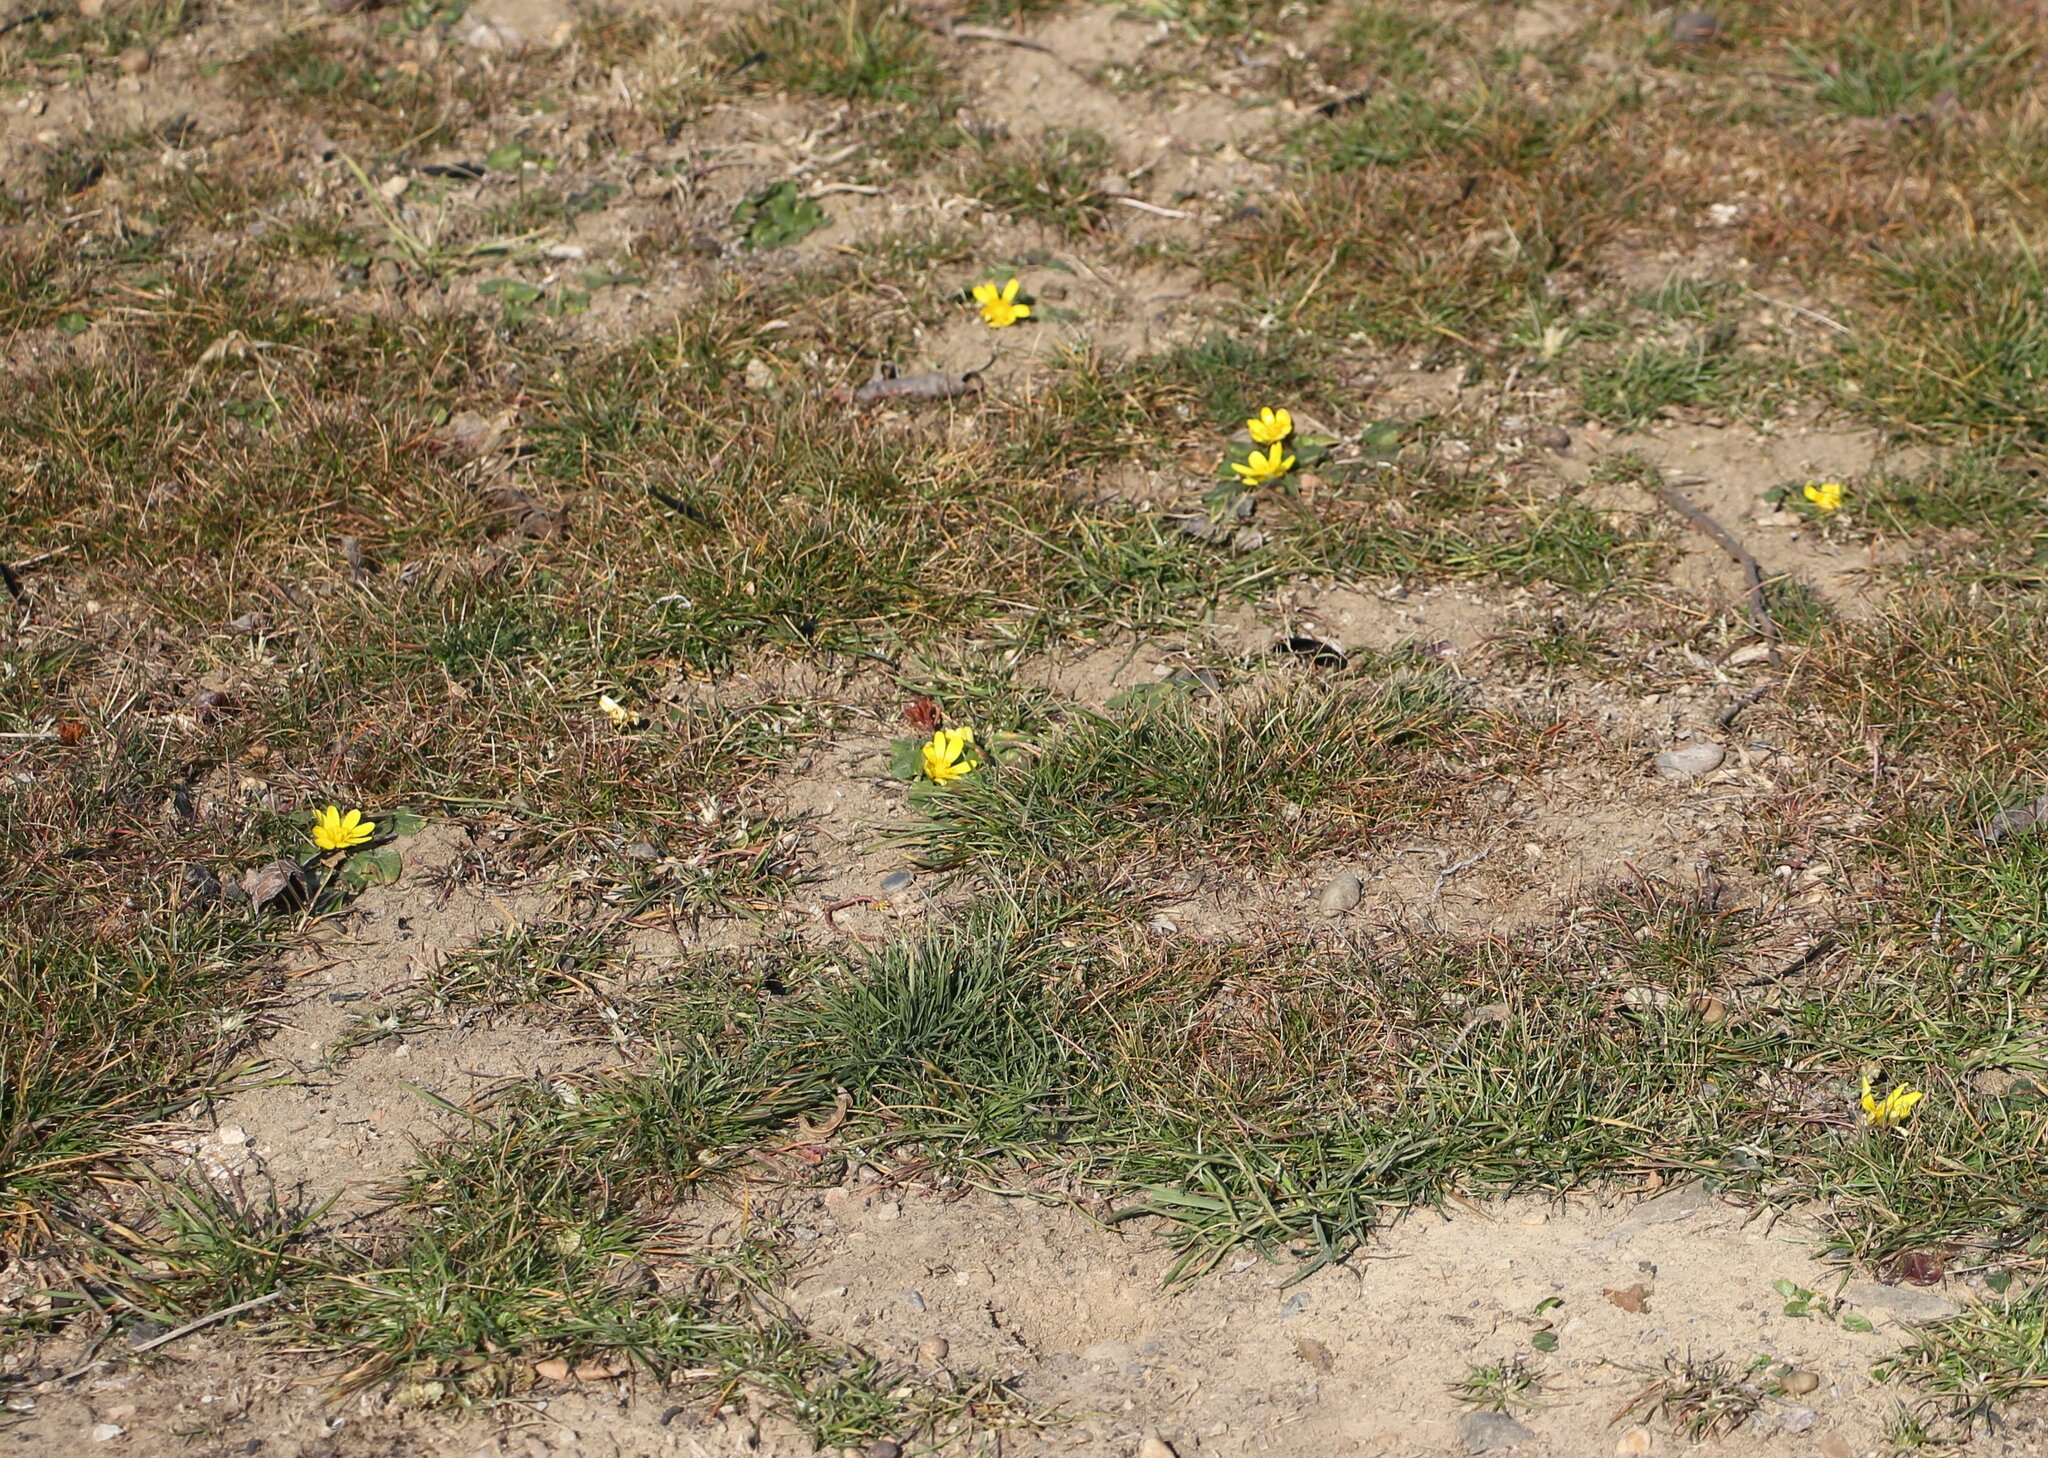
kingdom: Plantae
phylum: Tracheophyta
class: Magnoliopsida
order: Ranunculales
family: Ranunculaceae
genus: Ficaria
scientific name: Ficaria verna
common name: Lesser celandine
